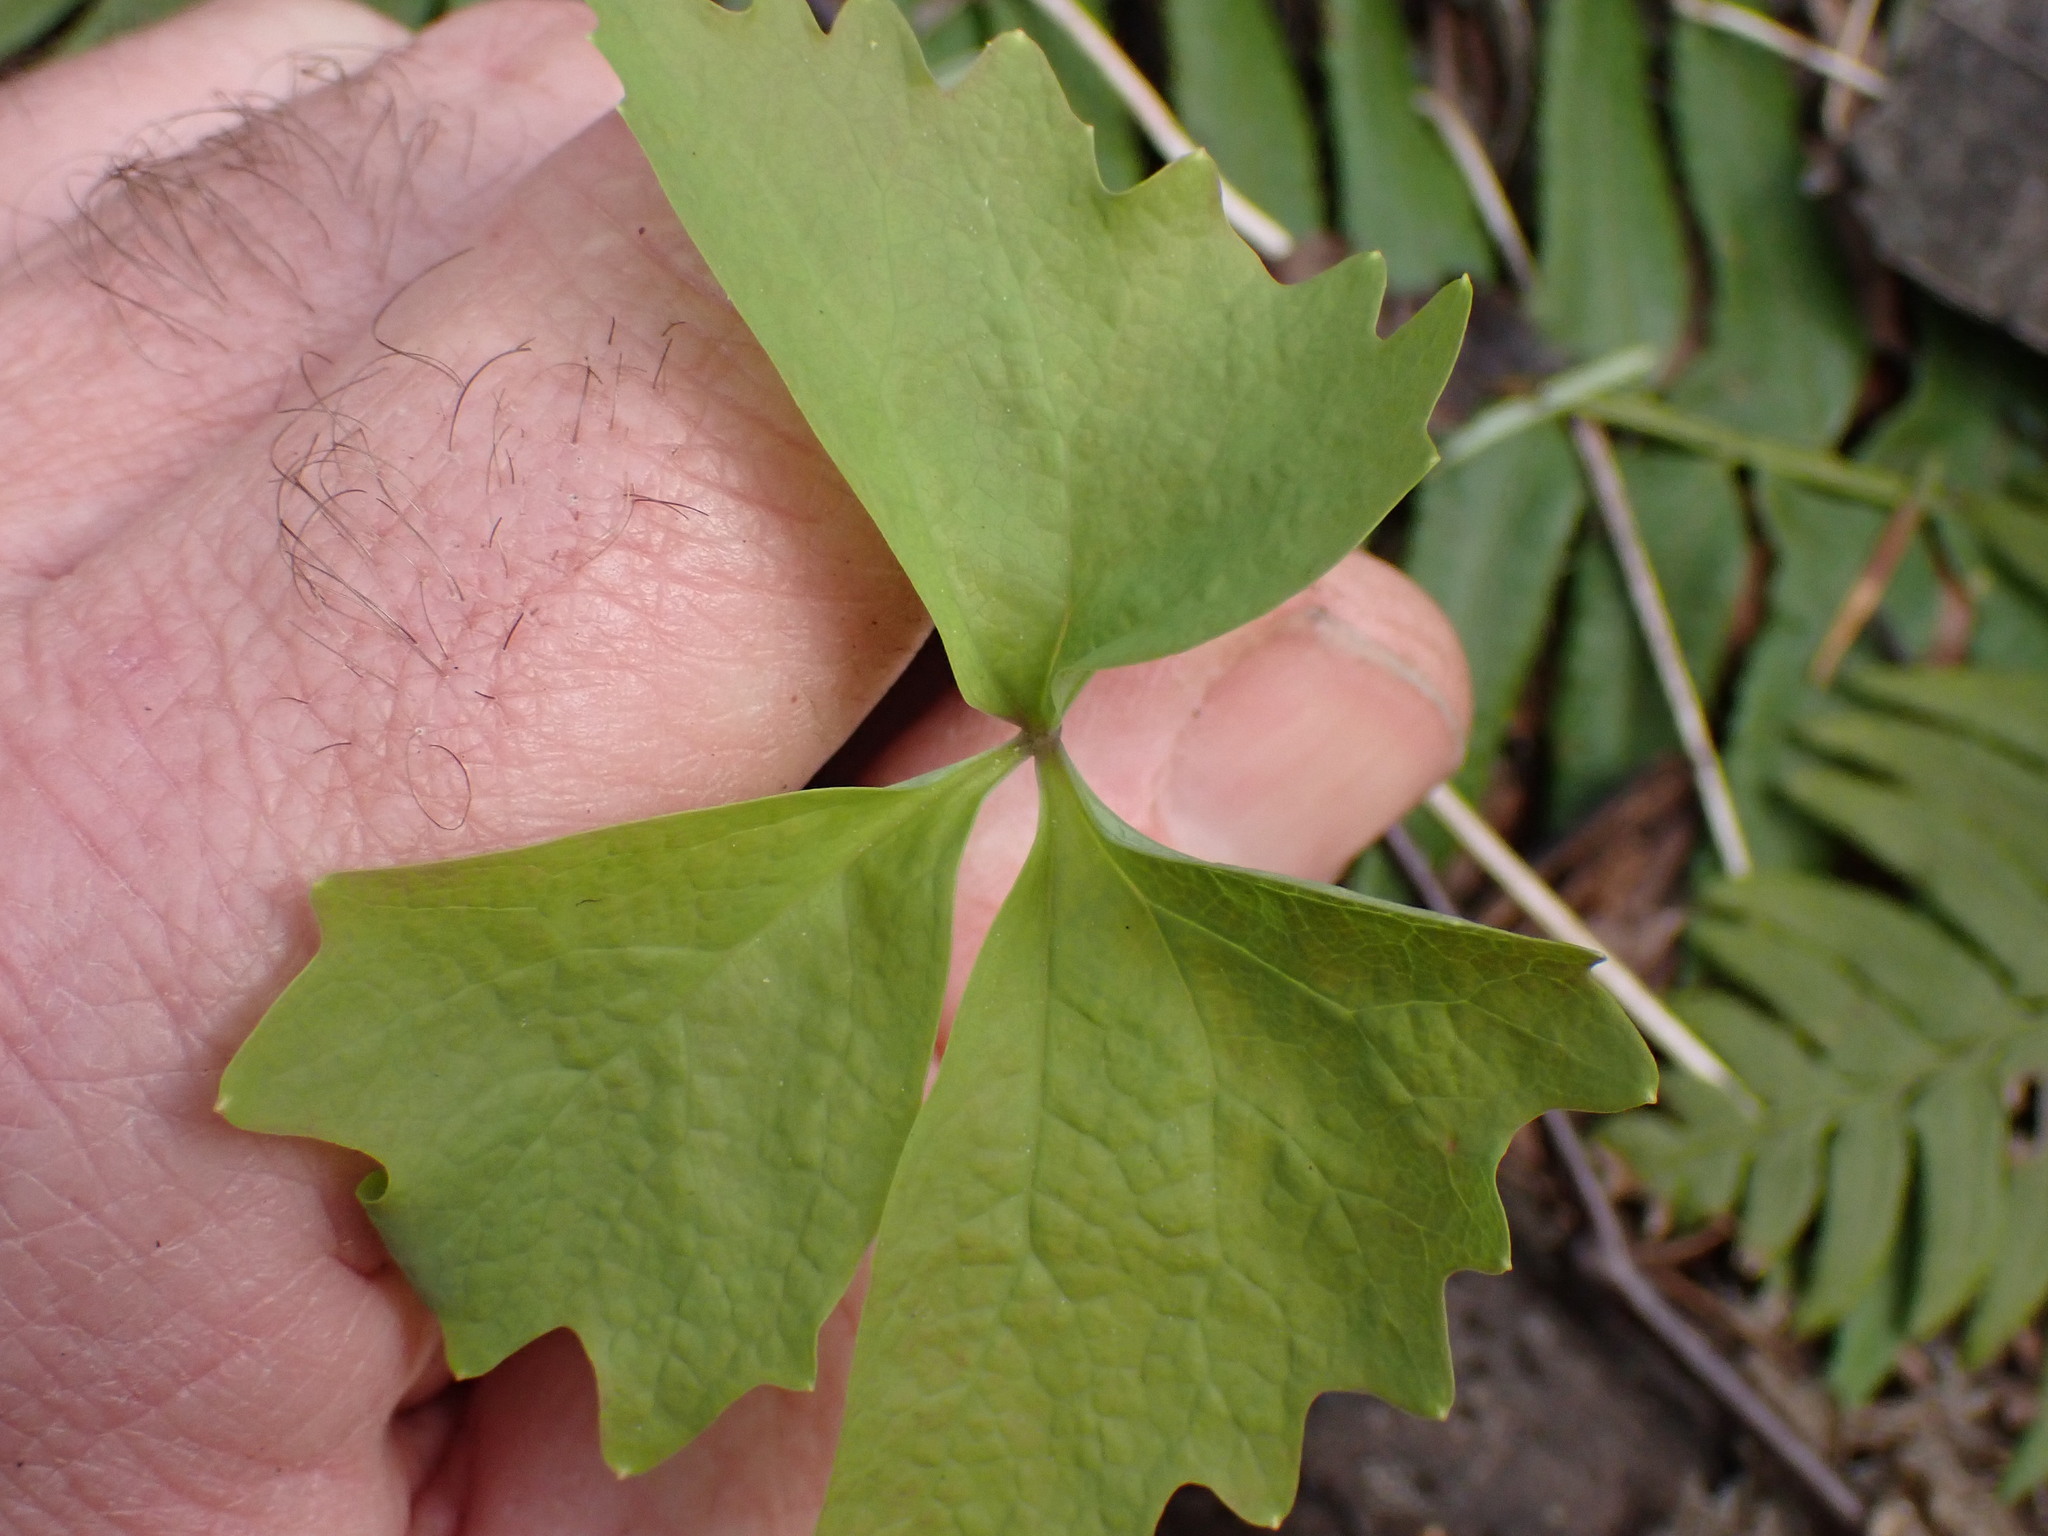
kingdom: Plantae
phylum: Tracheophyta
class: Magnoliopsida
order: Ranunculales
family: Berberidaceae
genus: Achlys
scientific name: Achlys triphylla
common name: Vanilla-leaf
